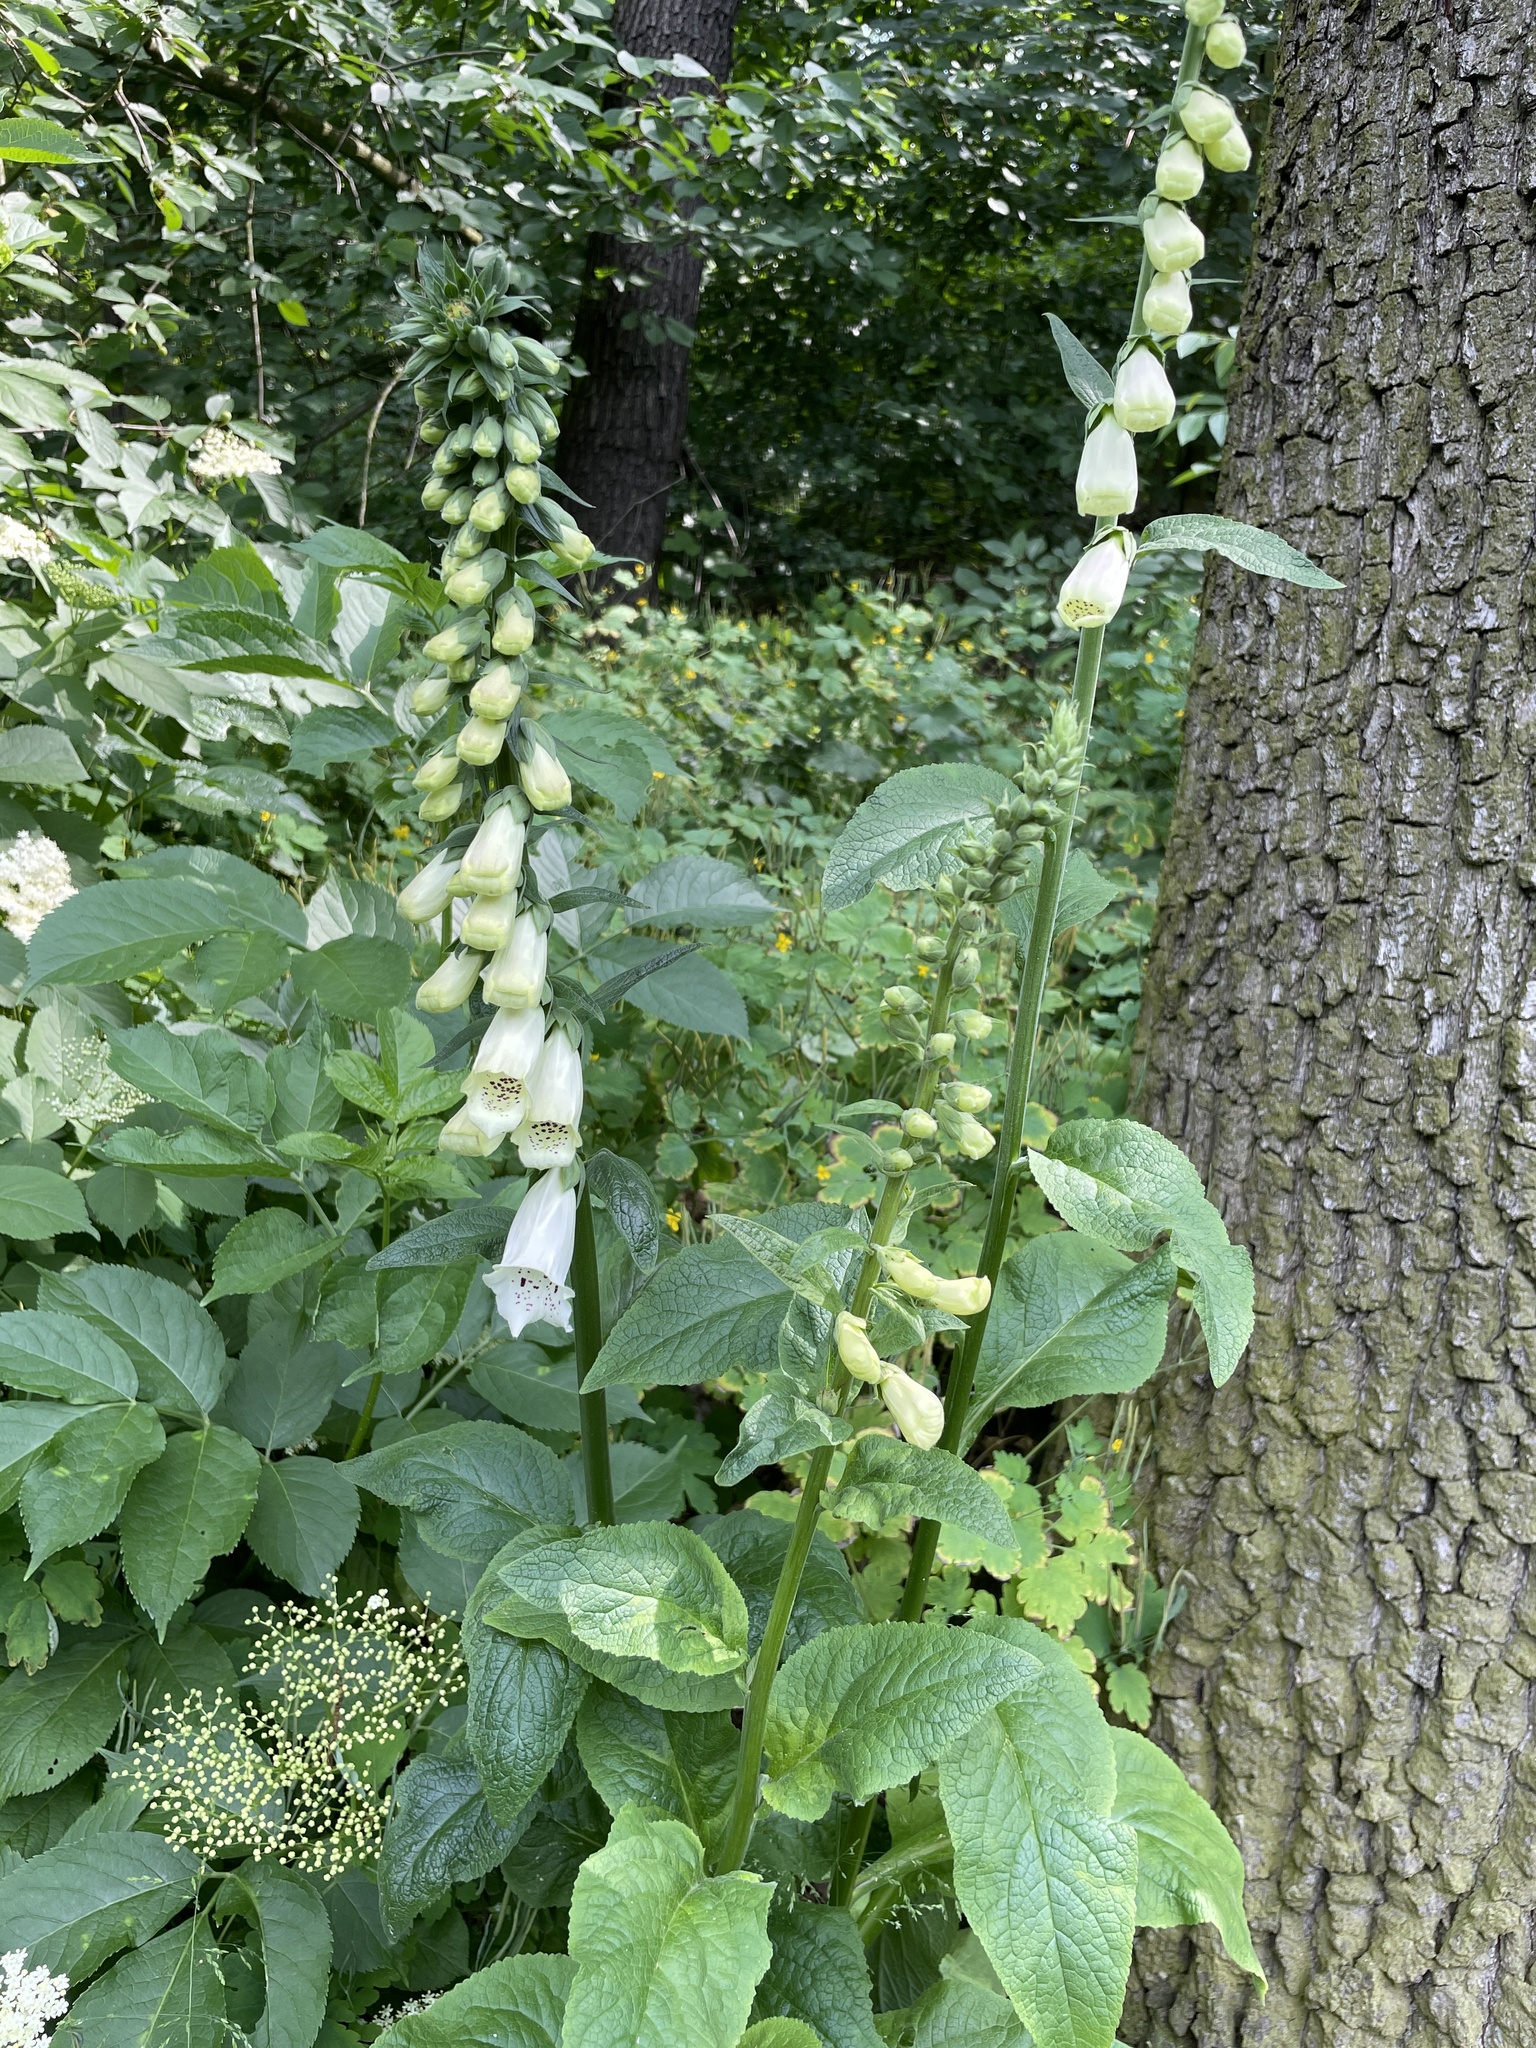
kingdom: Plantae
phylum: Tracheophyta
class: Magnoliopsida
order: Lamiales
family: Plantaginaceae
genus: Digitalis
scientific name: Digitalis purpurea
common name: Foxglove
